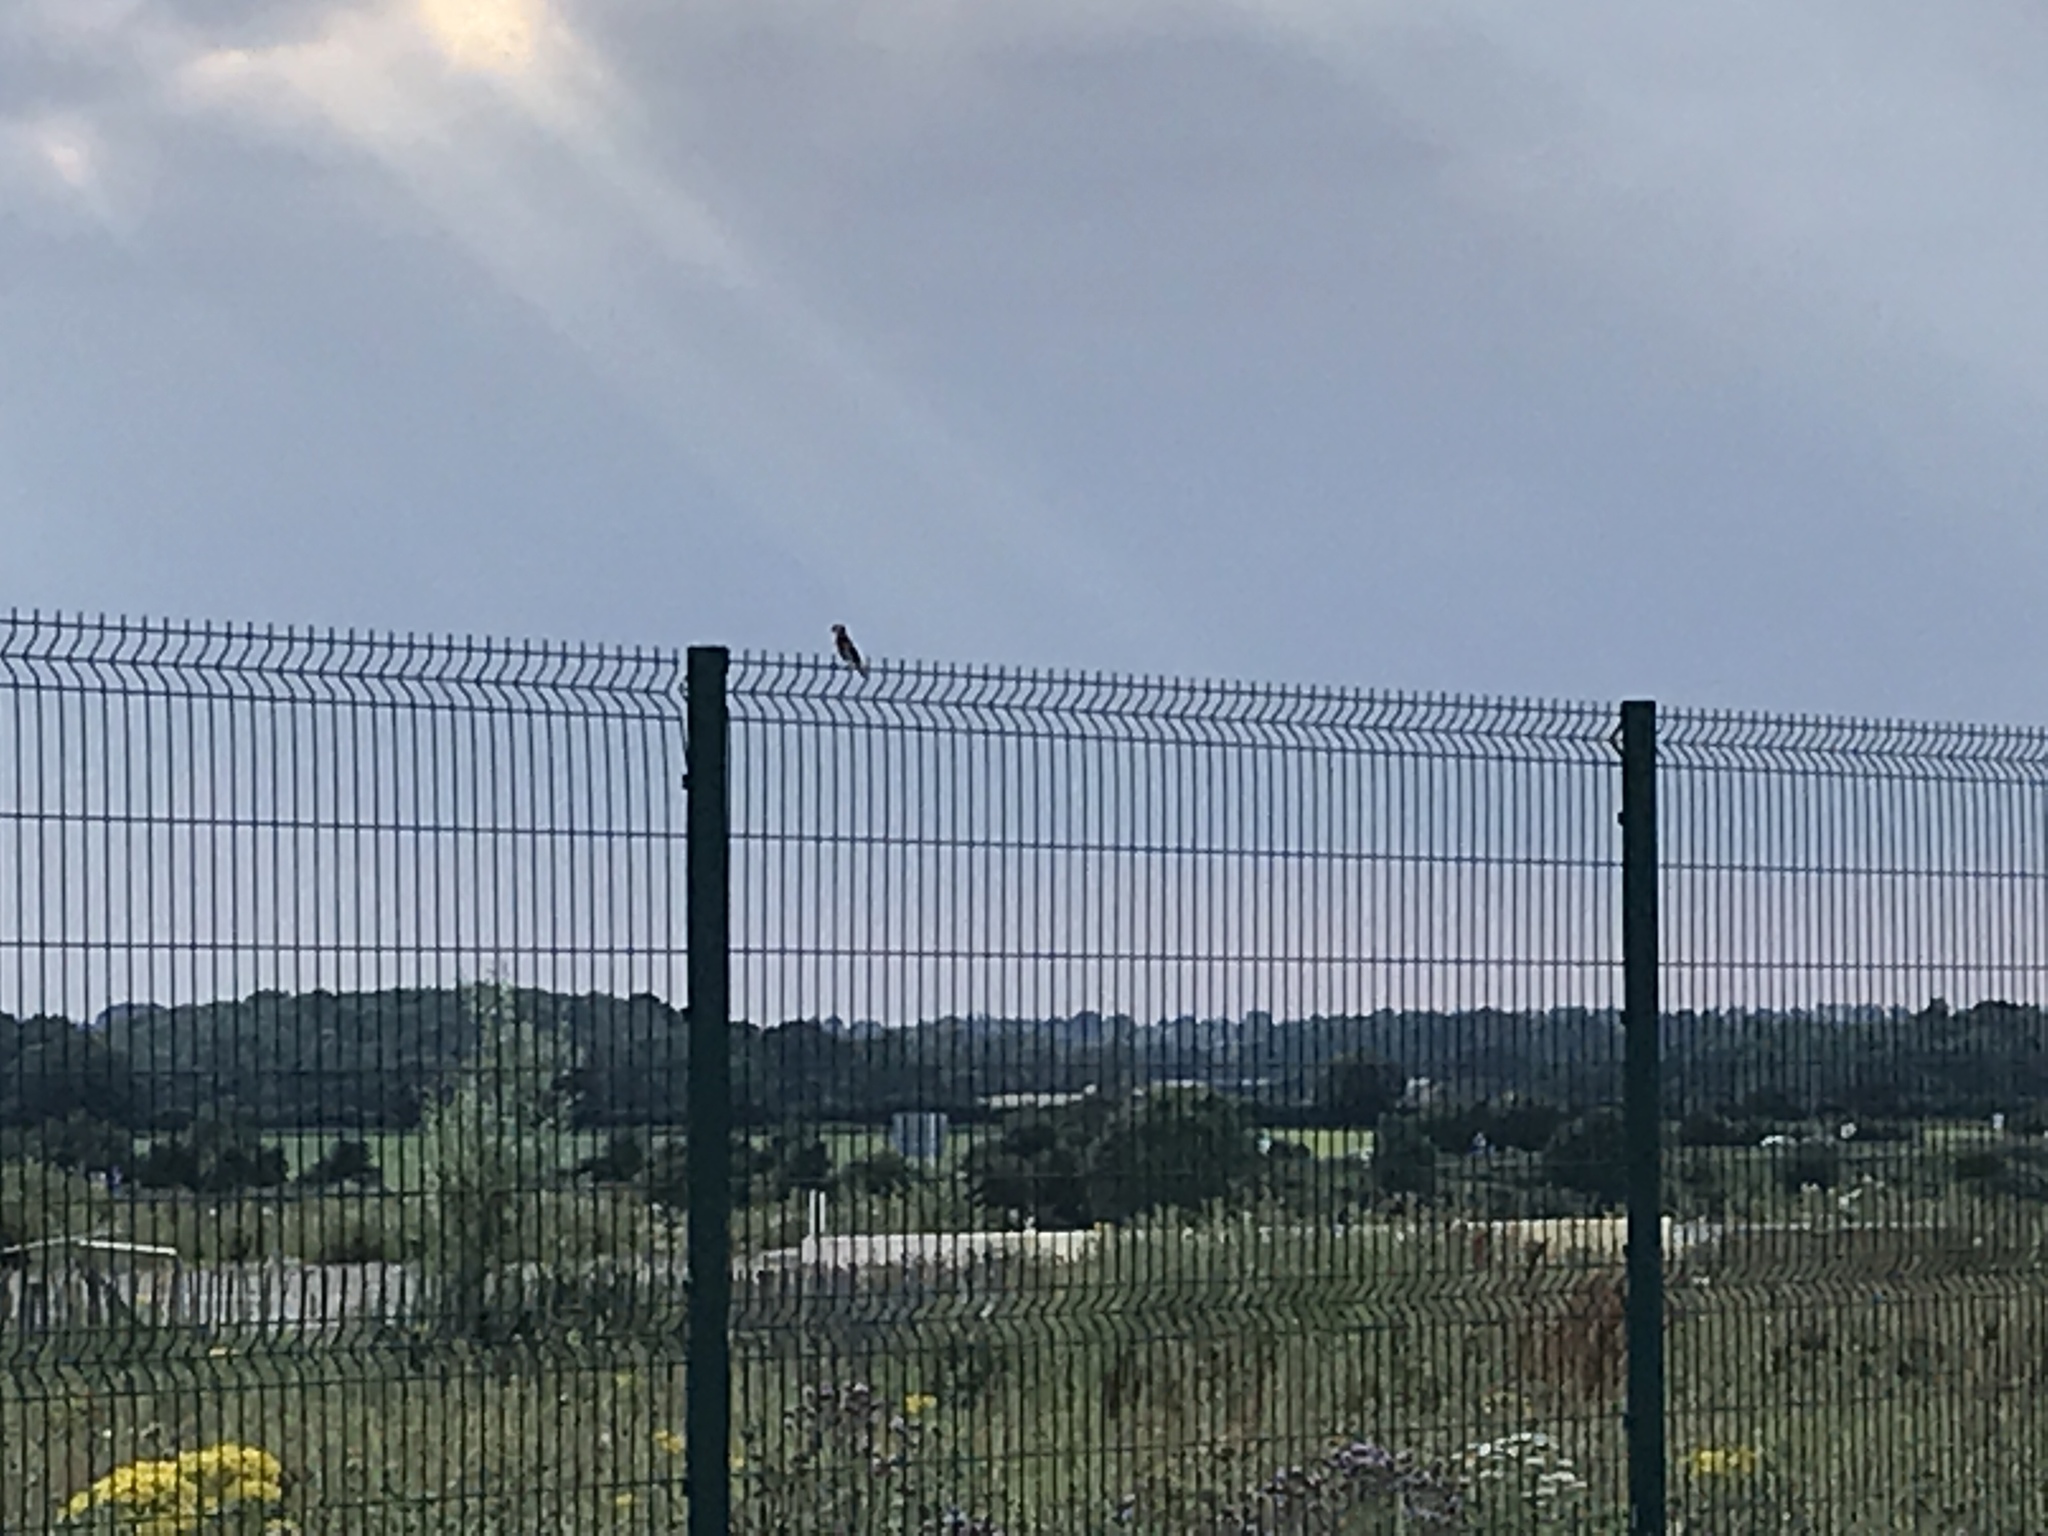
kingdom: Animalia
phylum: Chordata
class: Aves
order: Passeriformes
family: Fringillidae
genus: Carduelis
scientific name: Carduelis carduelis
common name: European goldfinch
